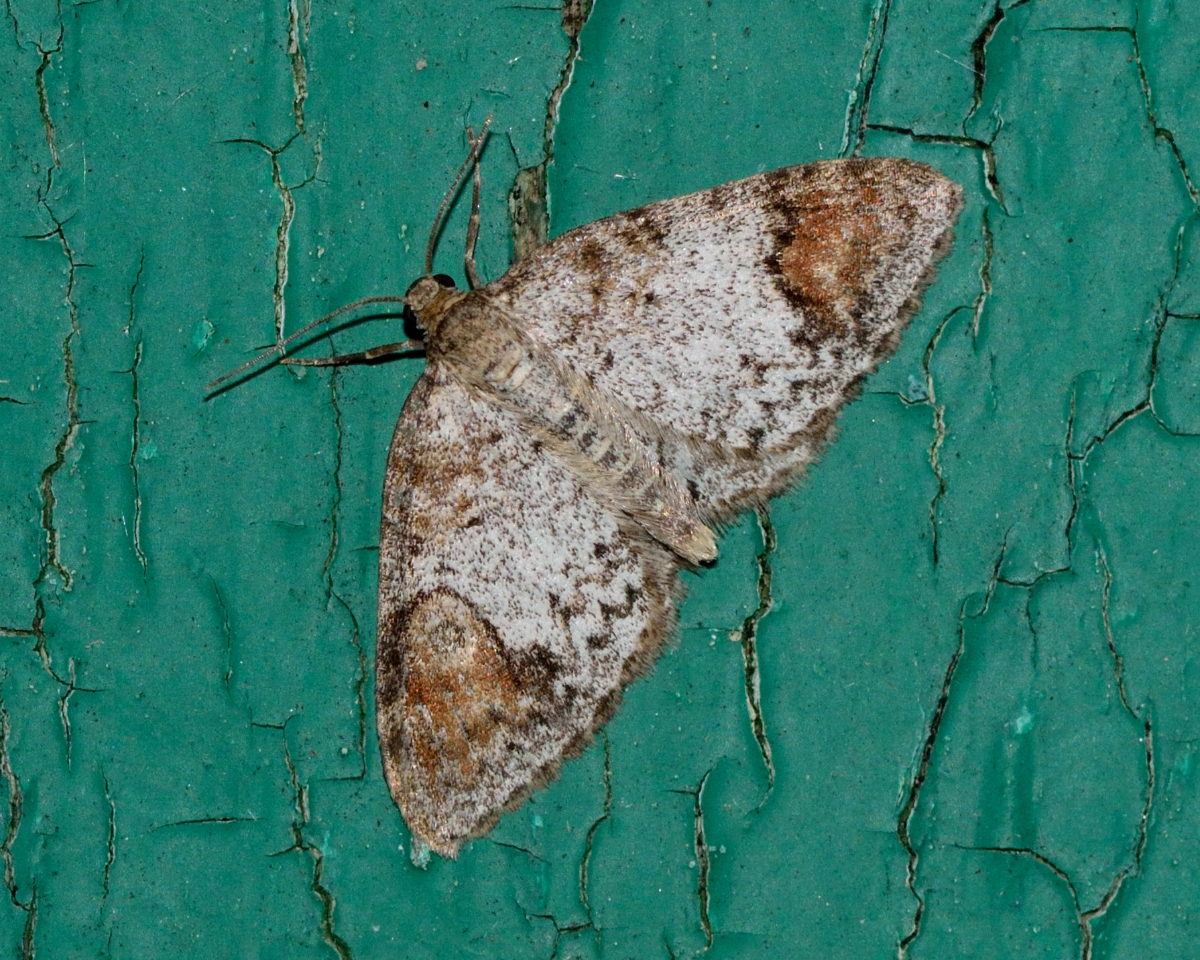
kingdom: Animalia
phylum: Arthropoda
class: Insecta
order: Lepidoptera
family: Geometridae
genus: Venusia
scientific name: Venusia blomeri
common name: Blomer's rivulet
